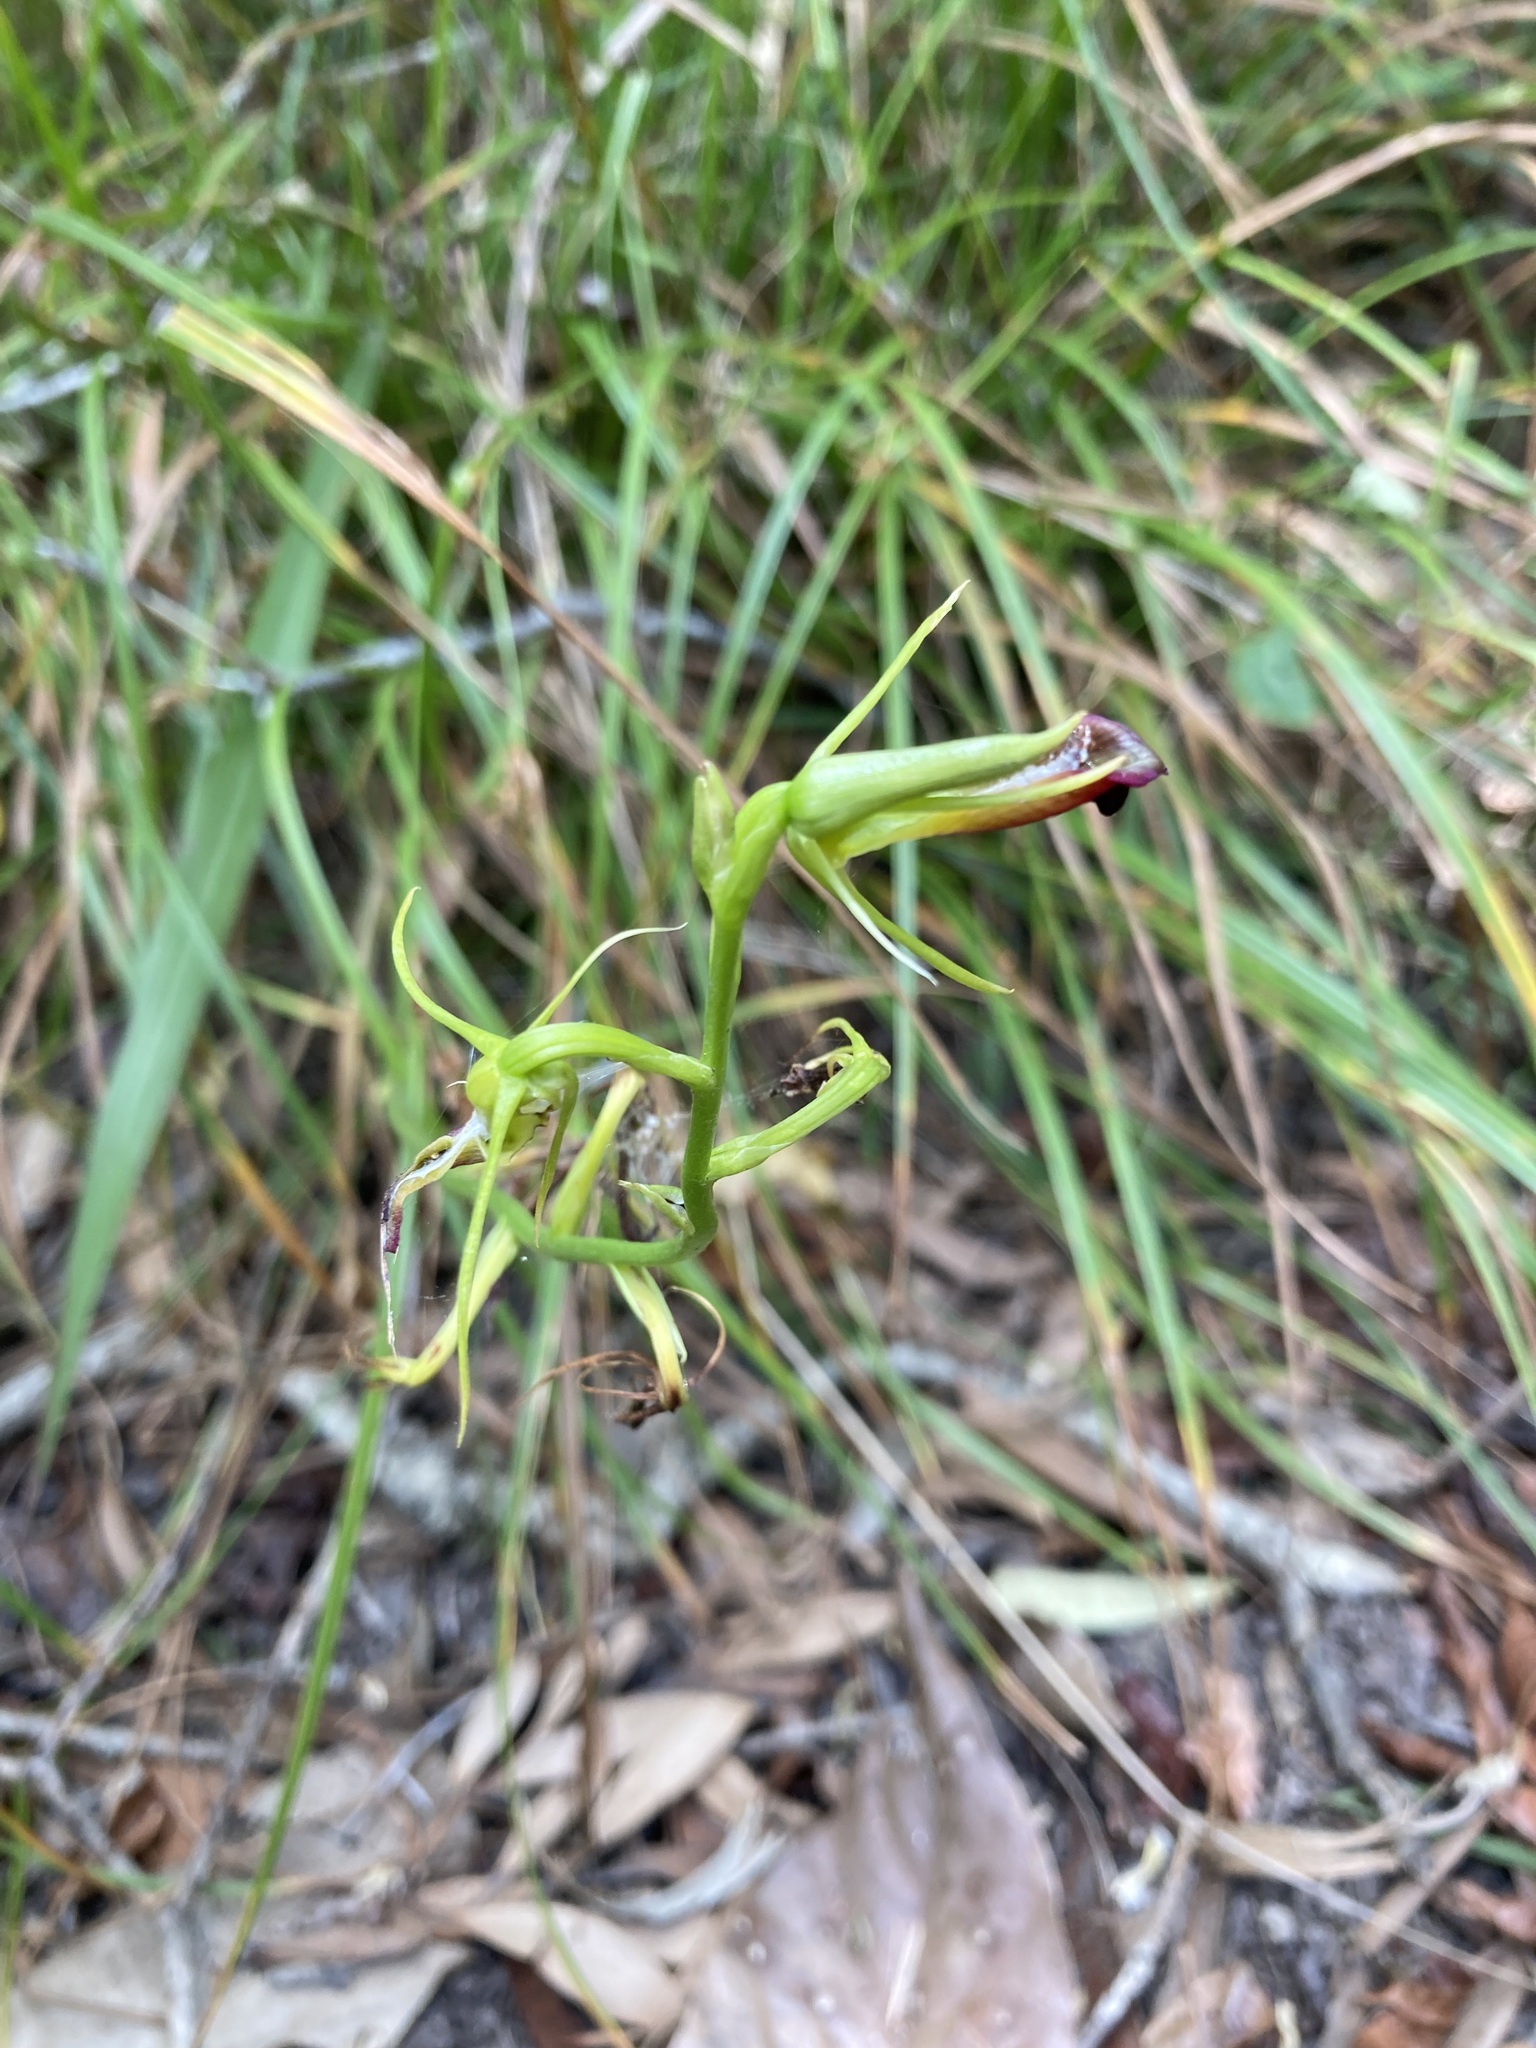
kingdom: Plantae
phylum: Tracheophyta
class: Liliopsida
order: Asparagales
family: Orchidaceae
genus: Cryptostylis
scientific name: Cryptostylis subulata
